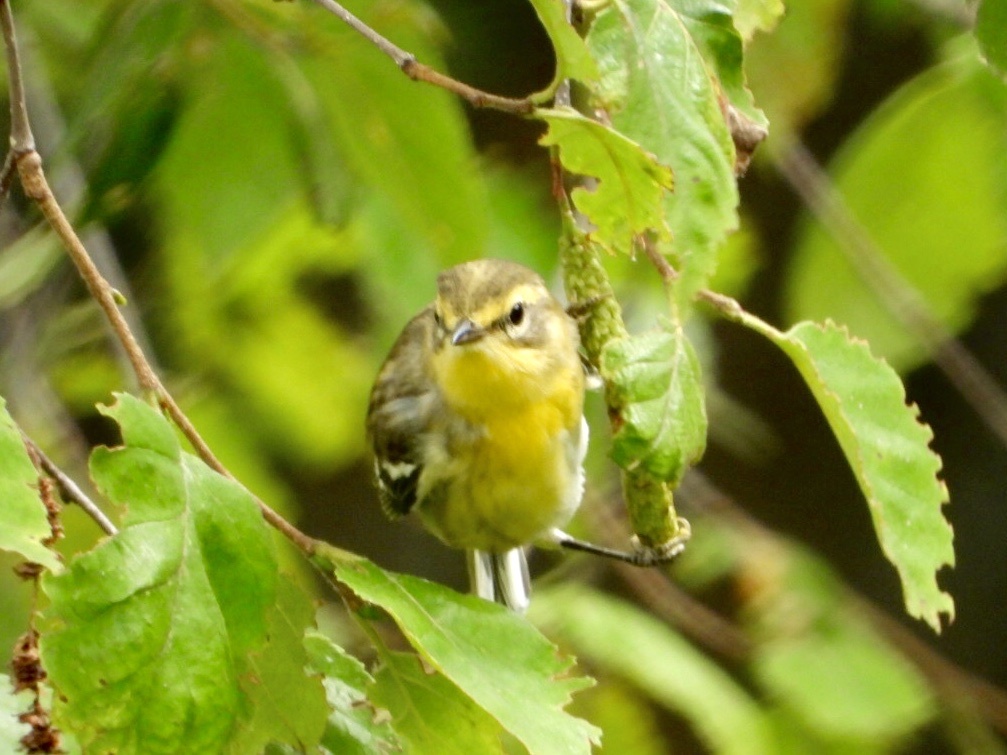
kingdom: Animalia
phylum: Chordata
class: Aves
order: Passeriformes
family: Parulidae
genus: Setophaga
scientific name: Setophaga fusca
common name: Blackburnian warbler
